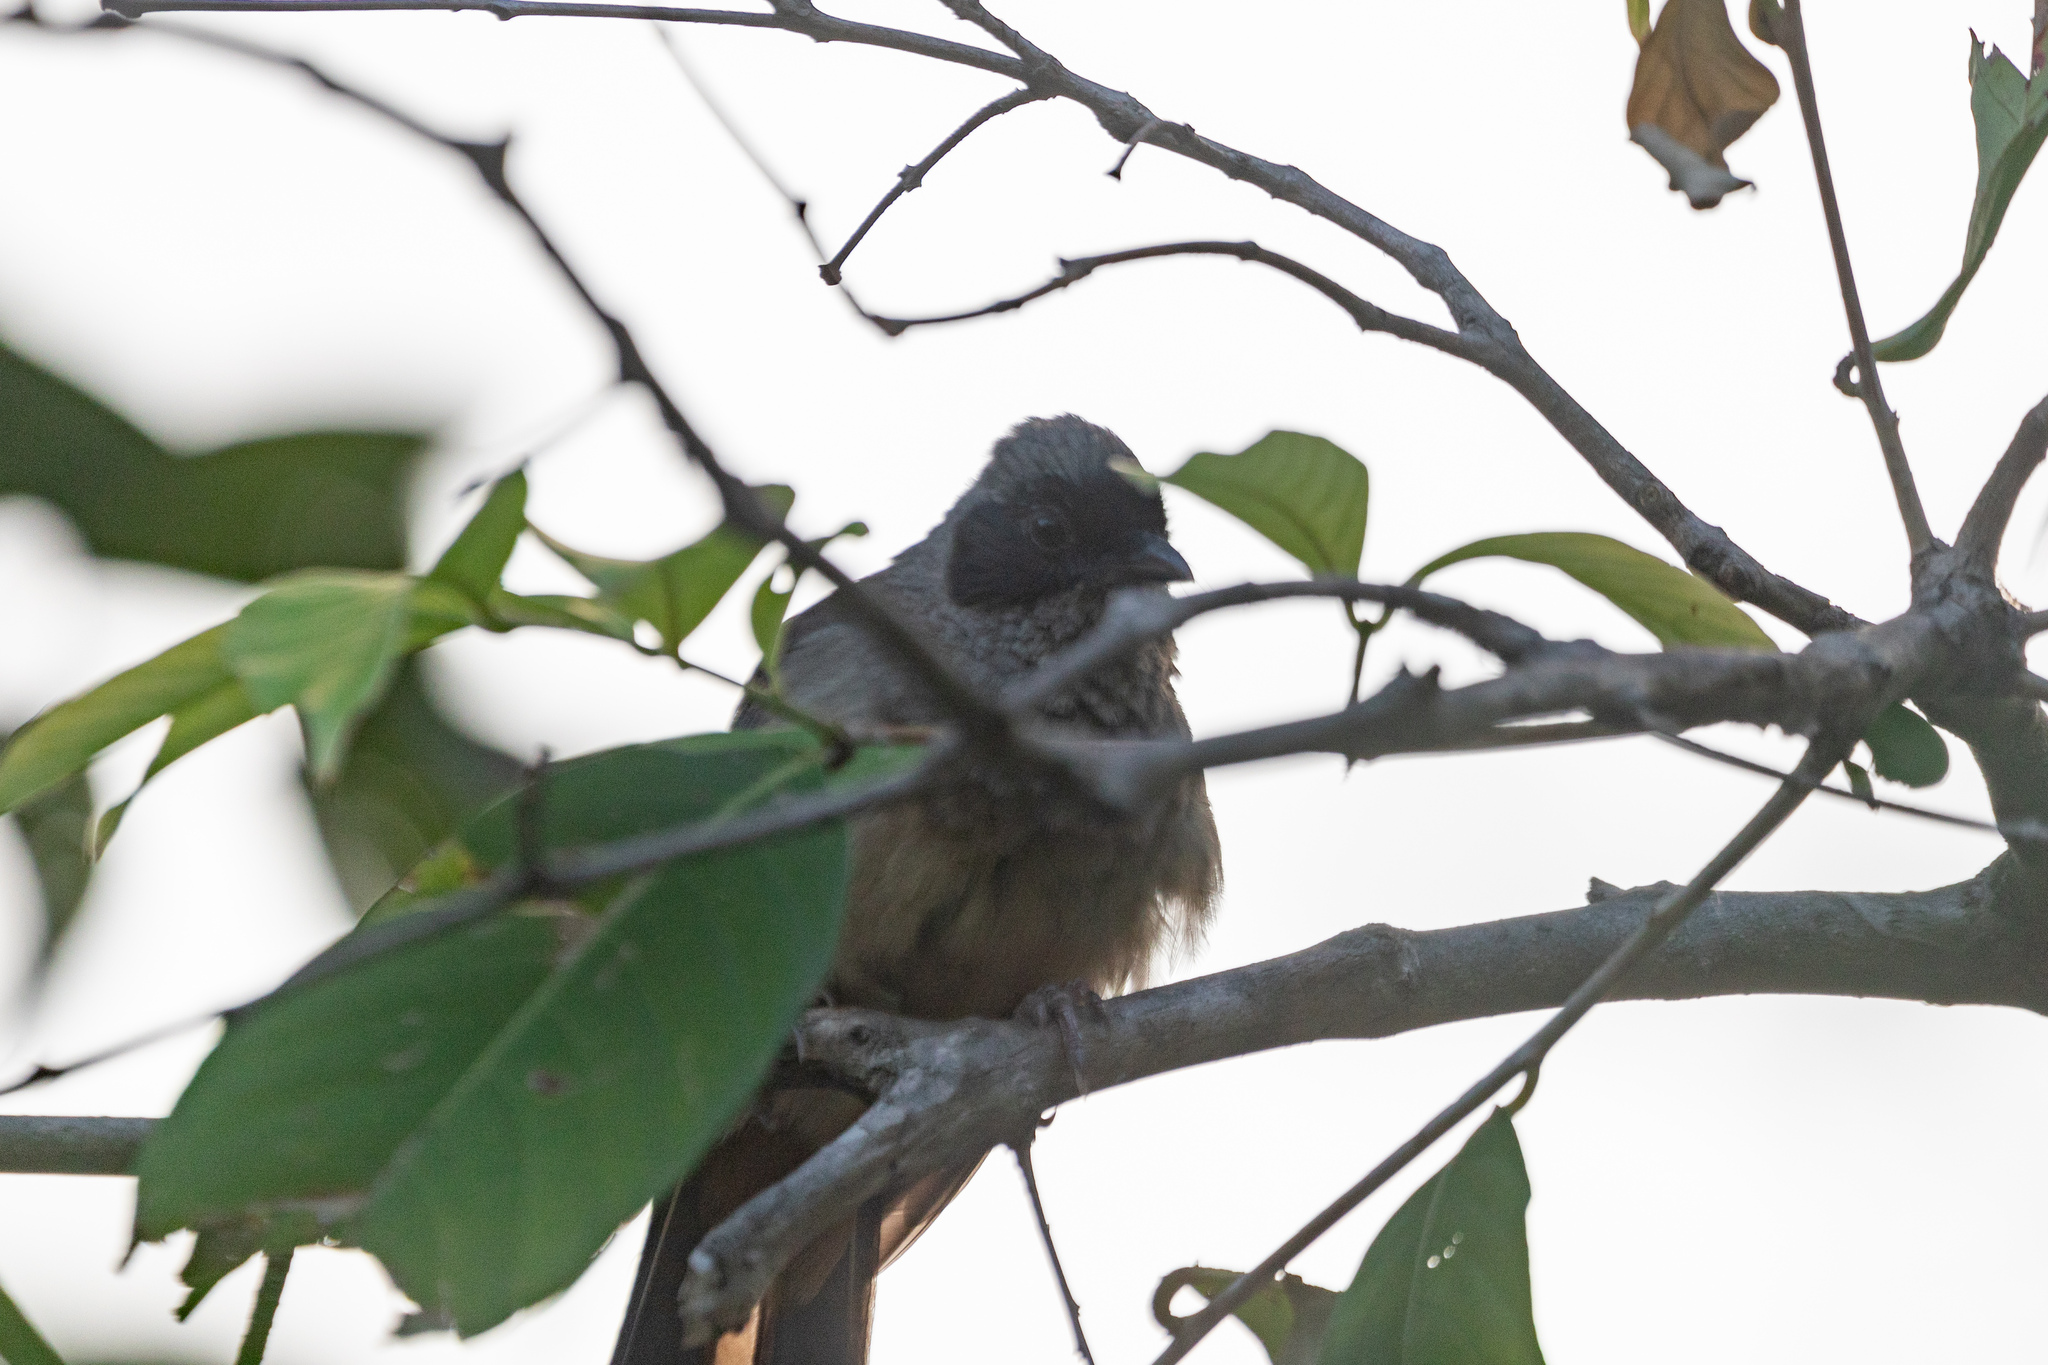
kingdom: Animalia
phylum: Chordata
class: Aves
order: Passeriformes
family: Leiothrichidae
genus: Garrulax
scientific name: Garrulax perspicillatus
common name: Masked laughingthrush
